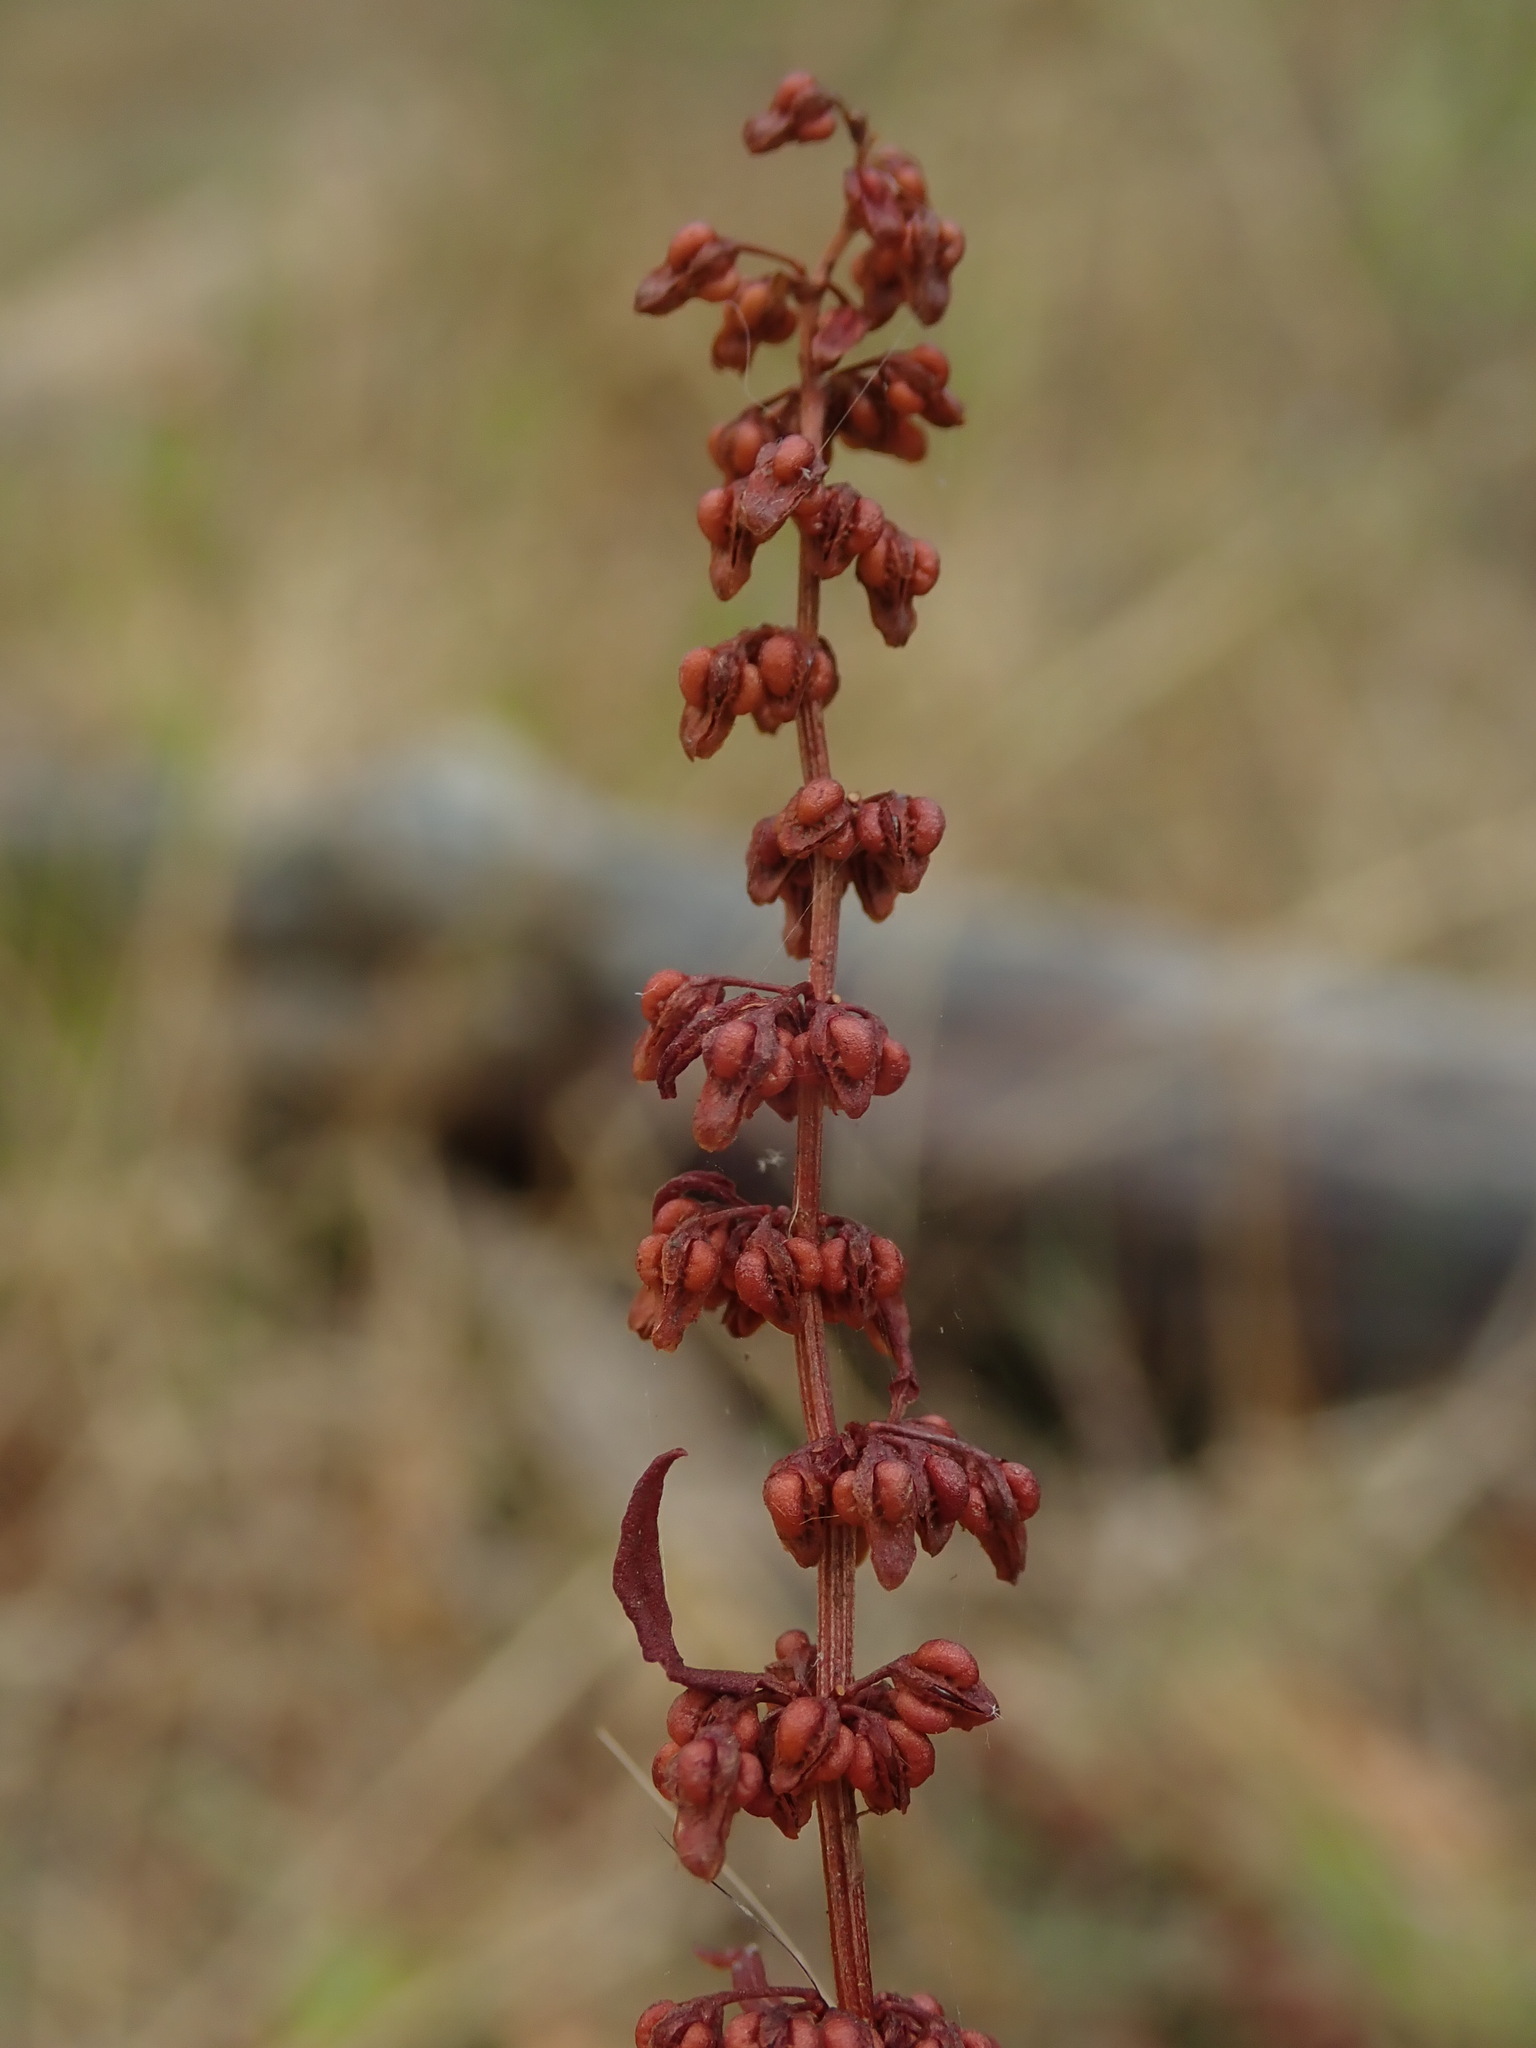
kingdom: Plantae
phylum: Tracheophyta
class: Magnoliopsida
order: Caryophyllales
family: Polygonaceae
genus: Rumex
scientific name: Rumex conglomeratus
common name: Clustered dock
